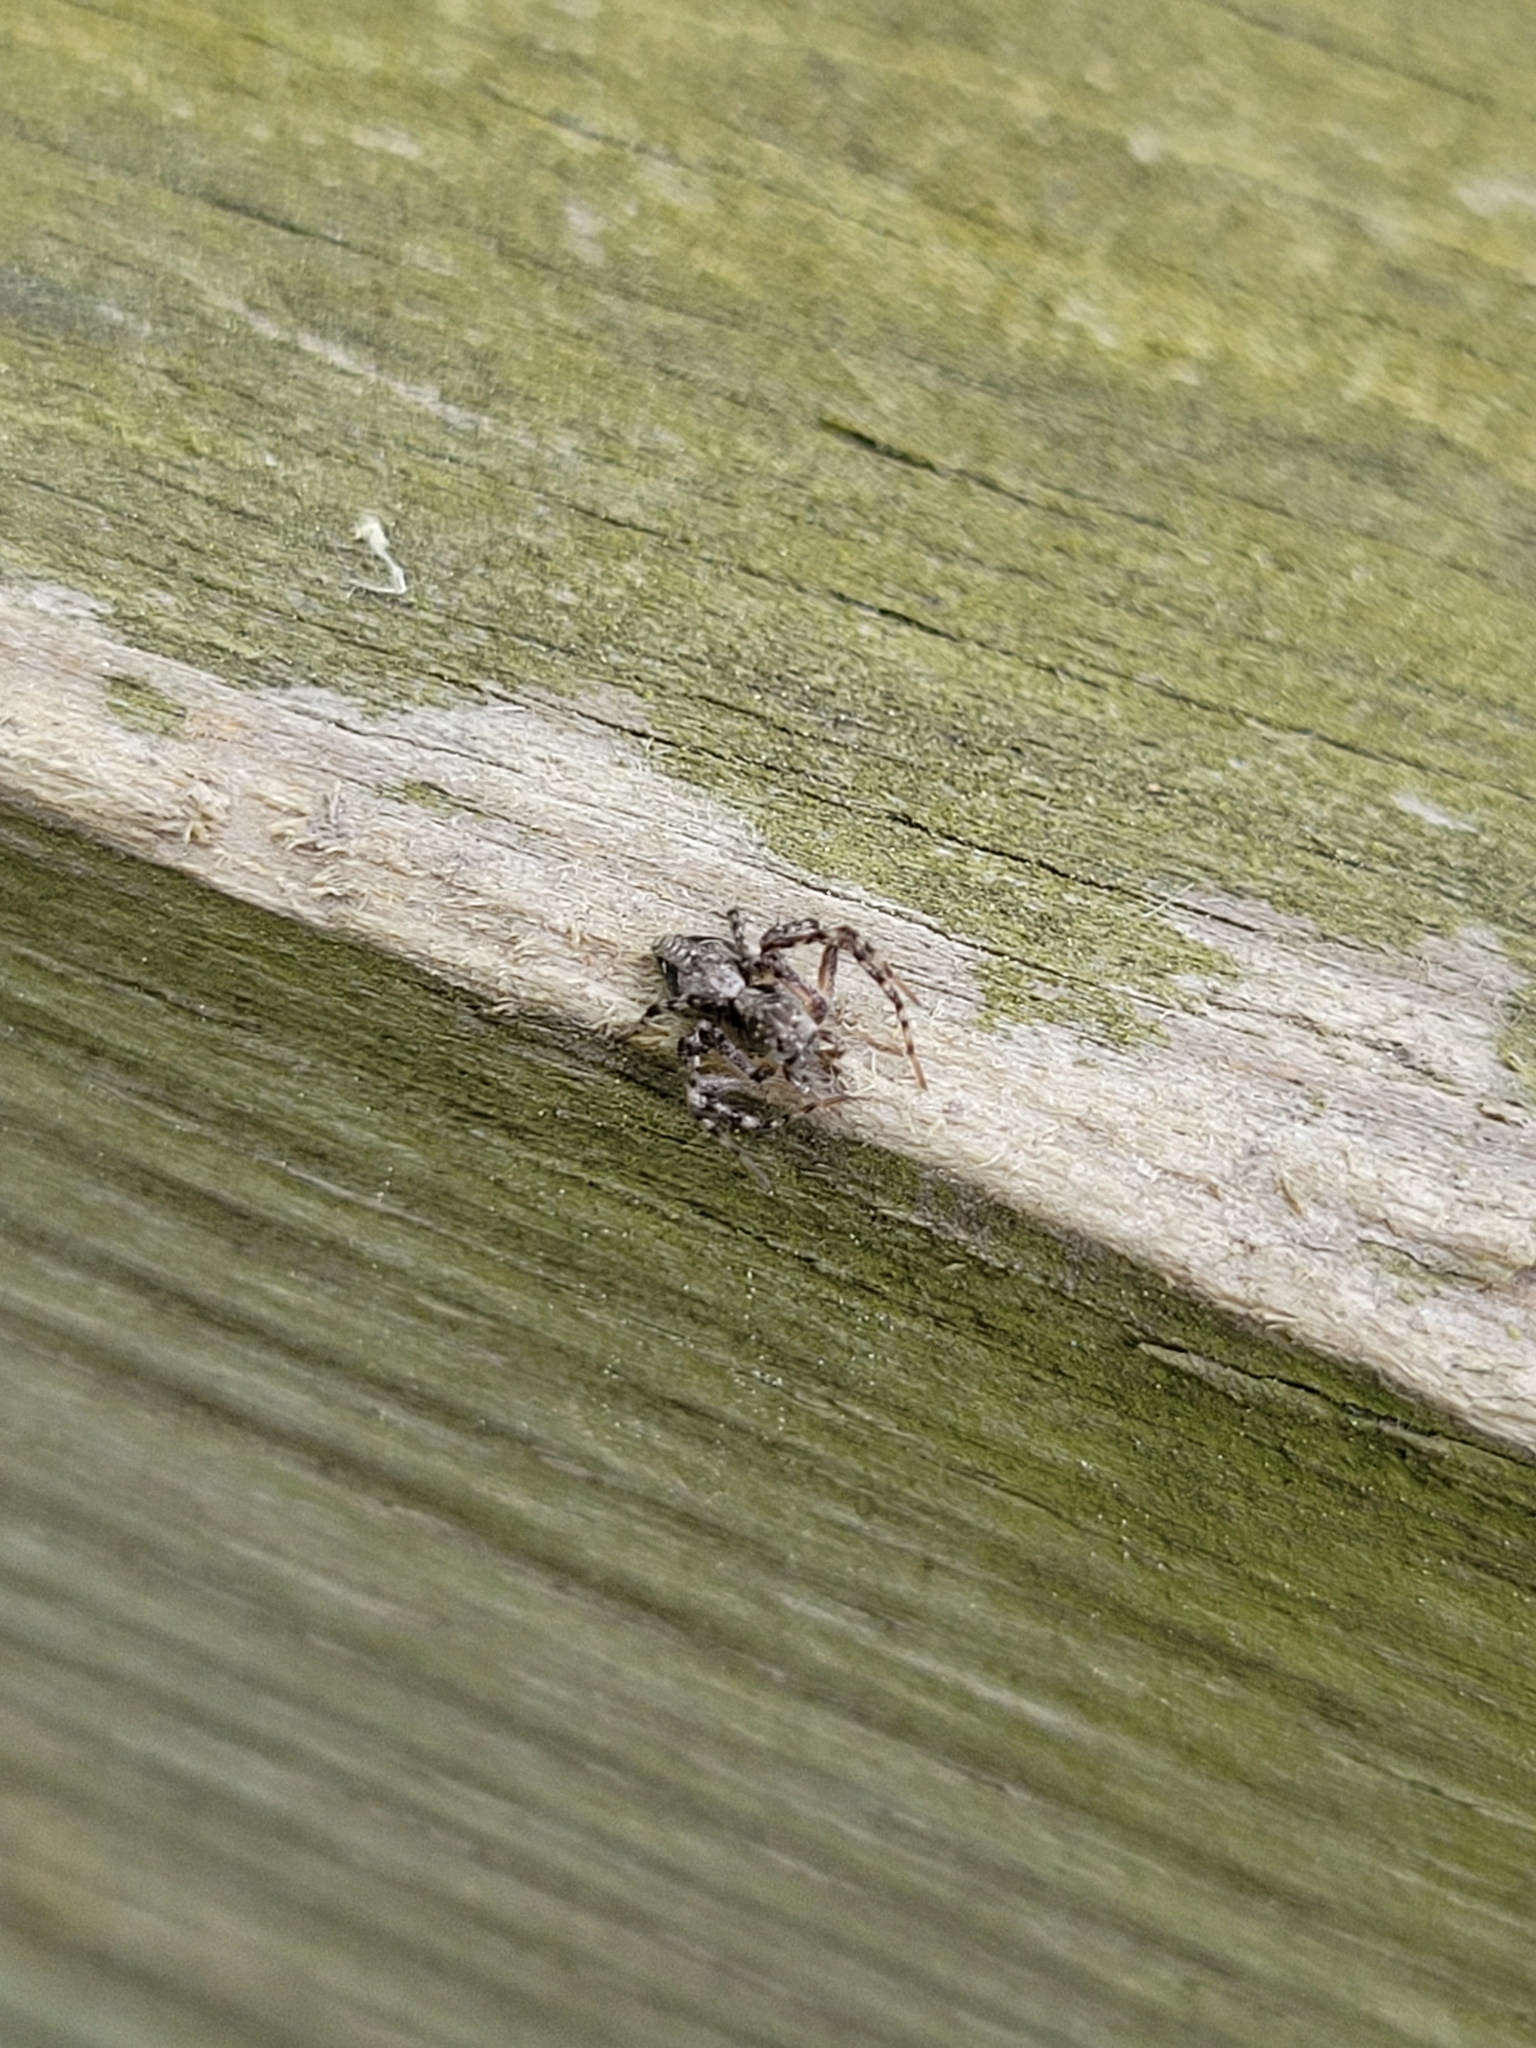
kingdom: Animalia
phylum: Arthropoda
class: Arachnida
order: Araneae
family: Oxyopidae
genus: Oxyopes
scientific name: Oxyopes scalaris
